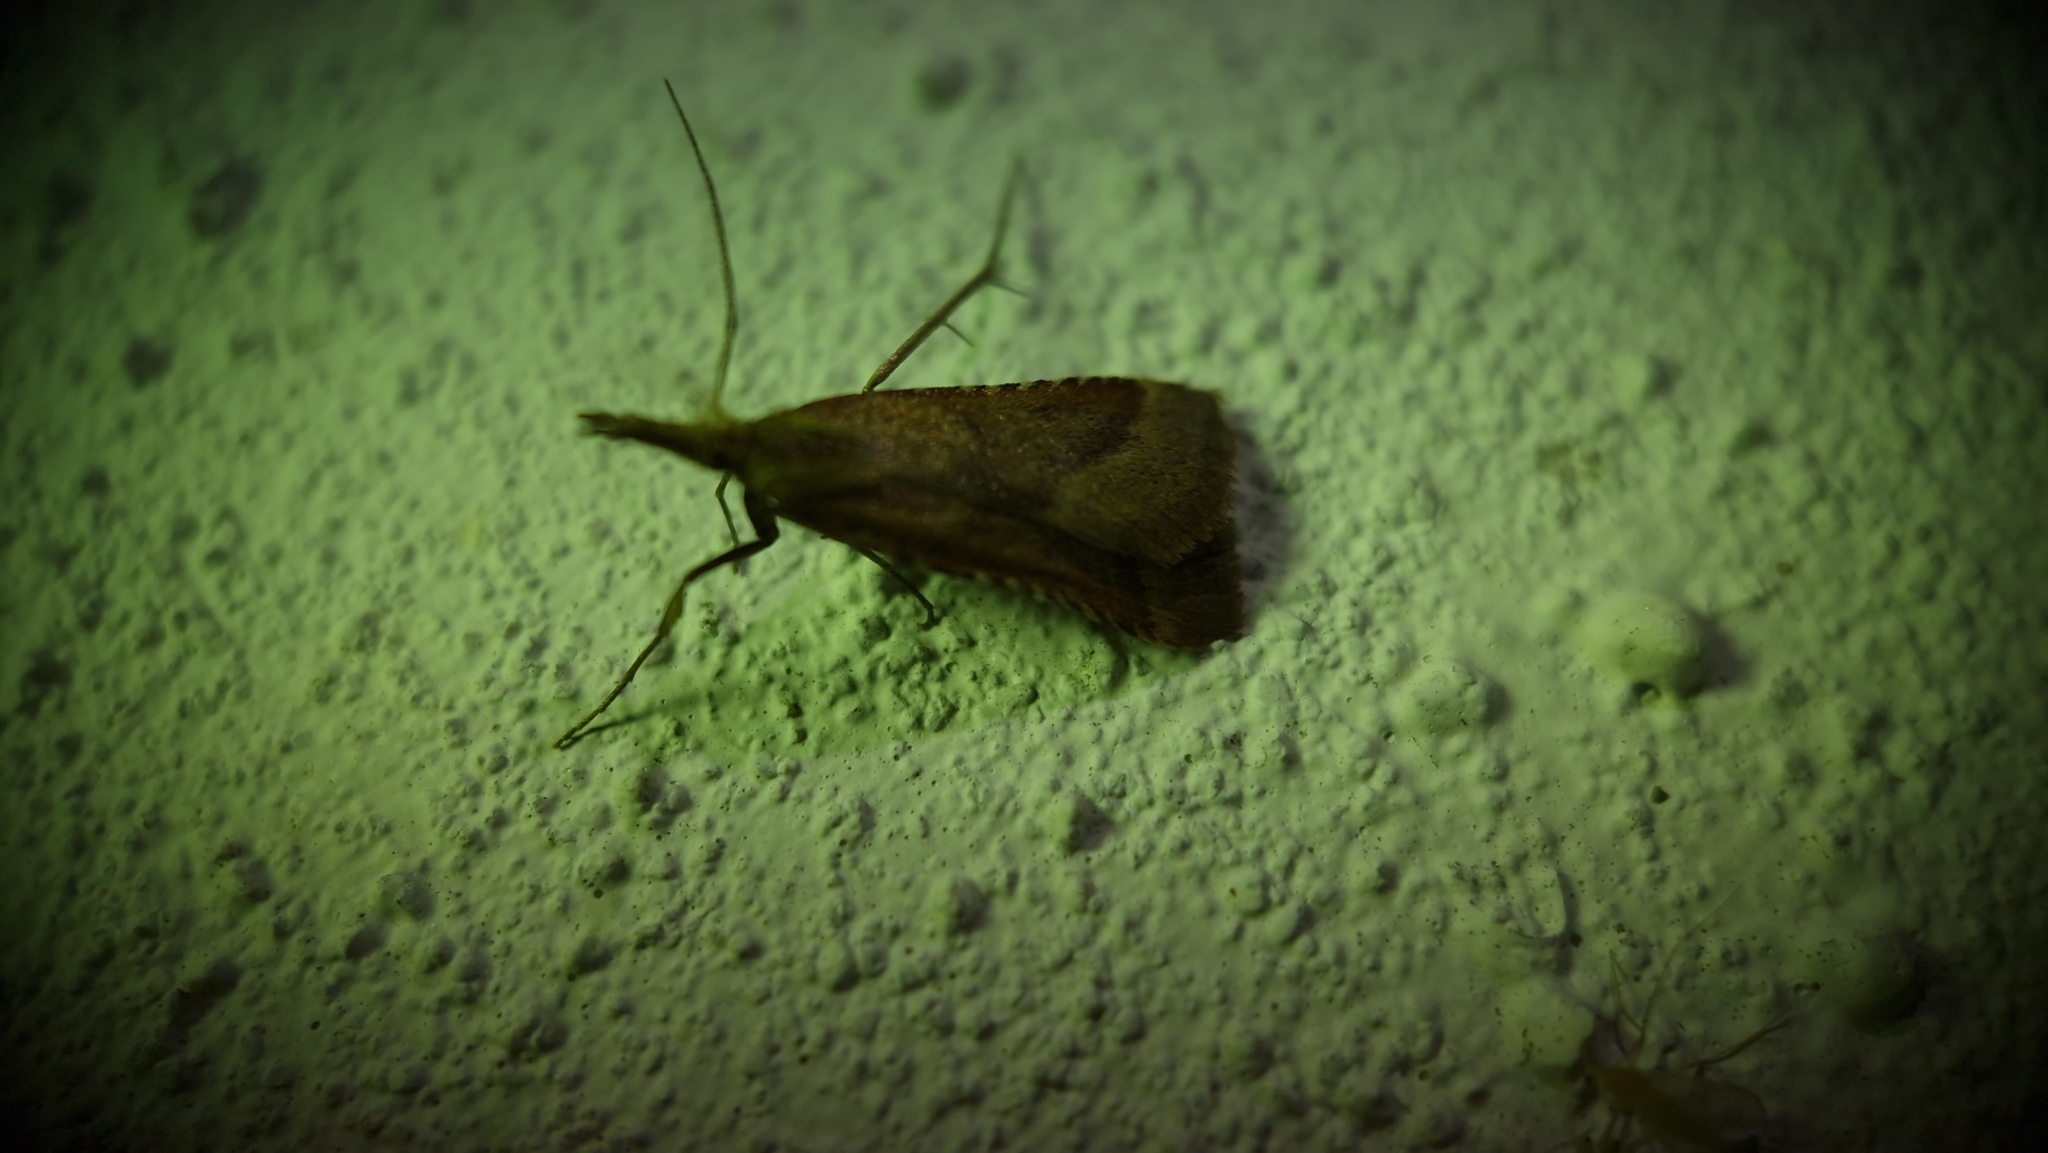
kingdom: Animalia
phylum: Arthropoda
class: Insecta
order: Lepidoptera
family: Pyralidae
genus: Synaphe
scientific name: Synaphe punctalis
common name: Long-legged tabby
